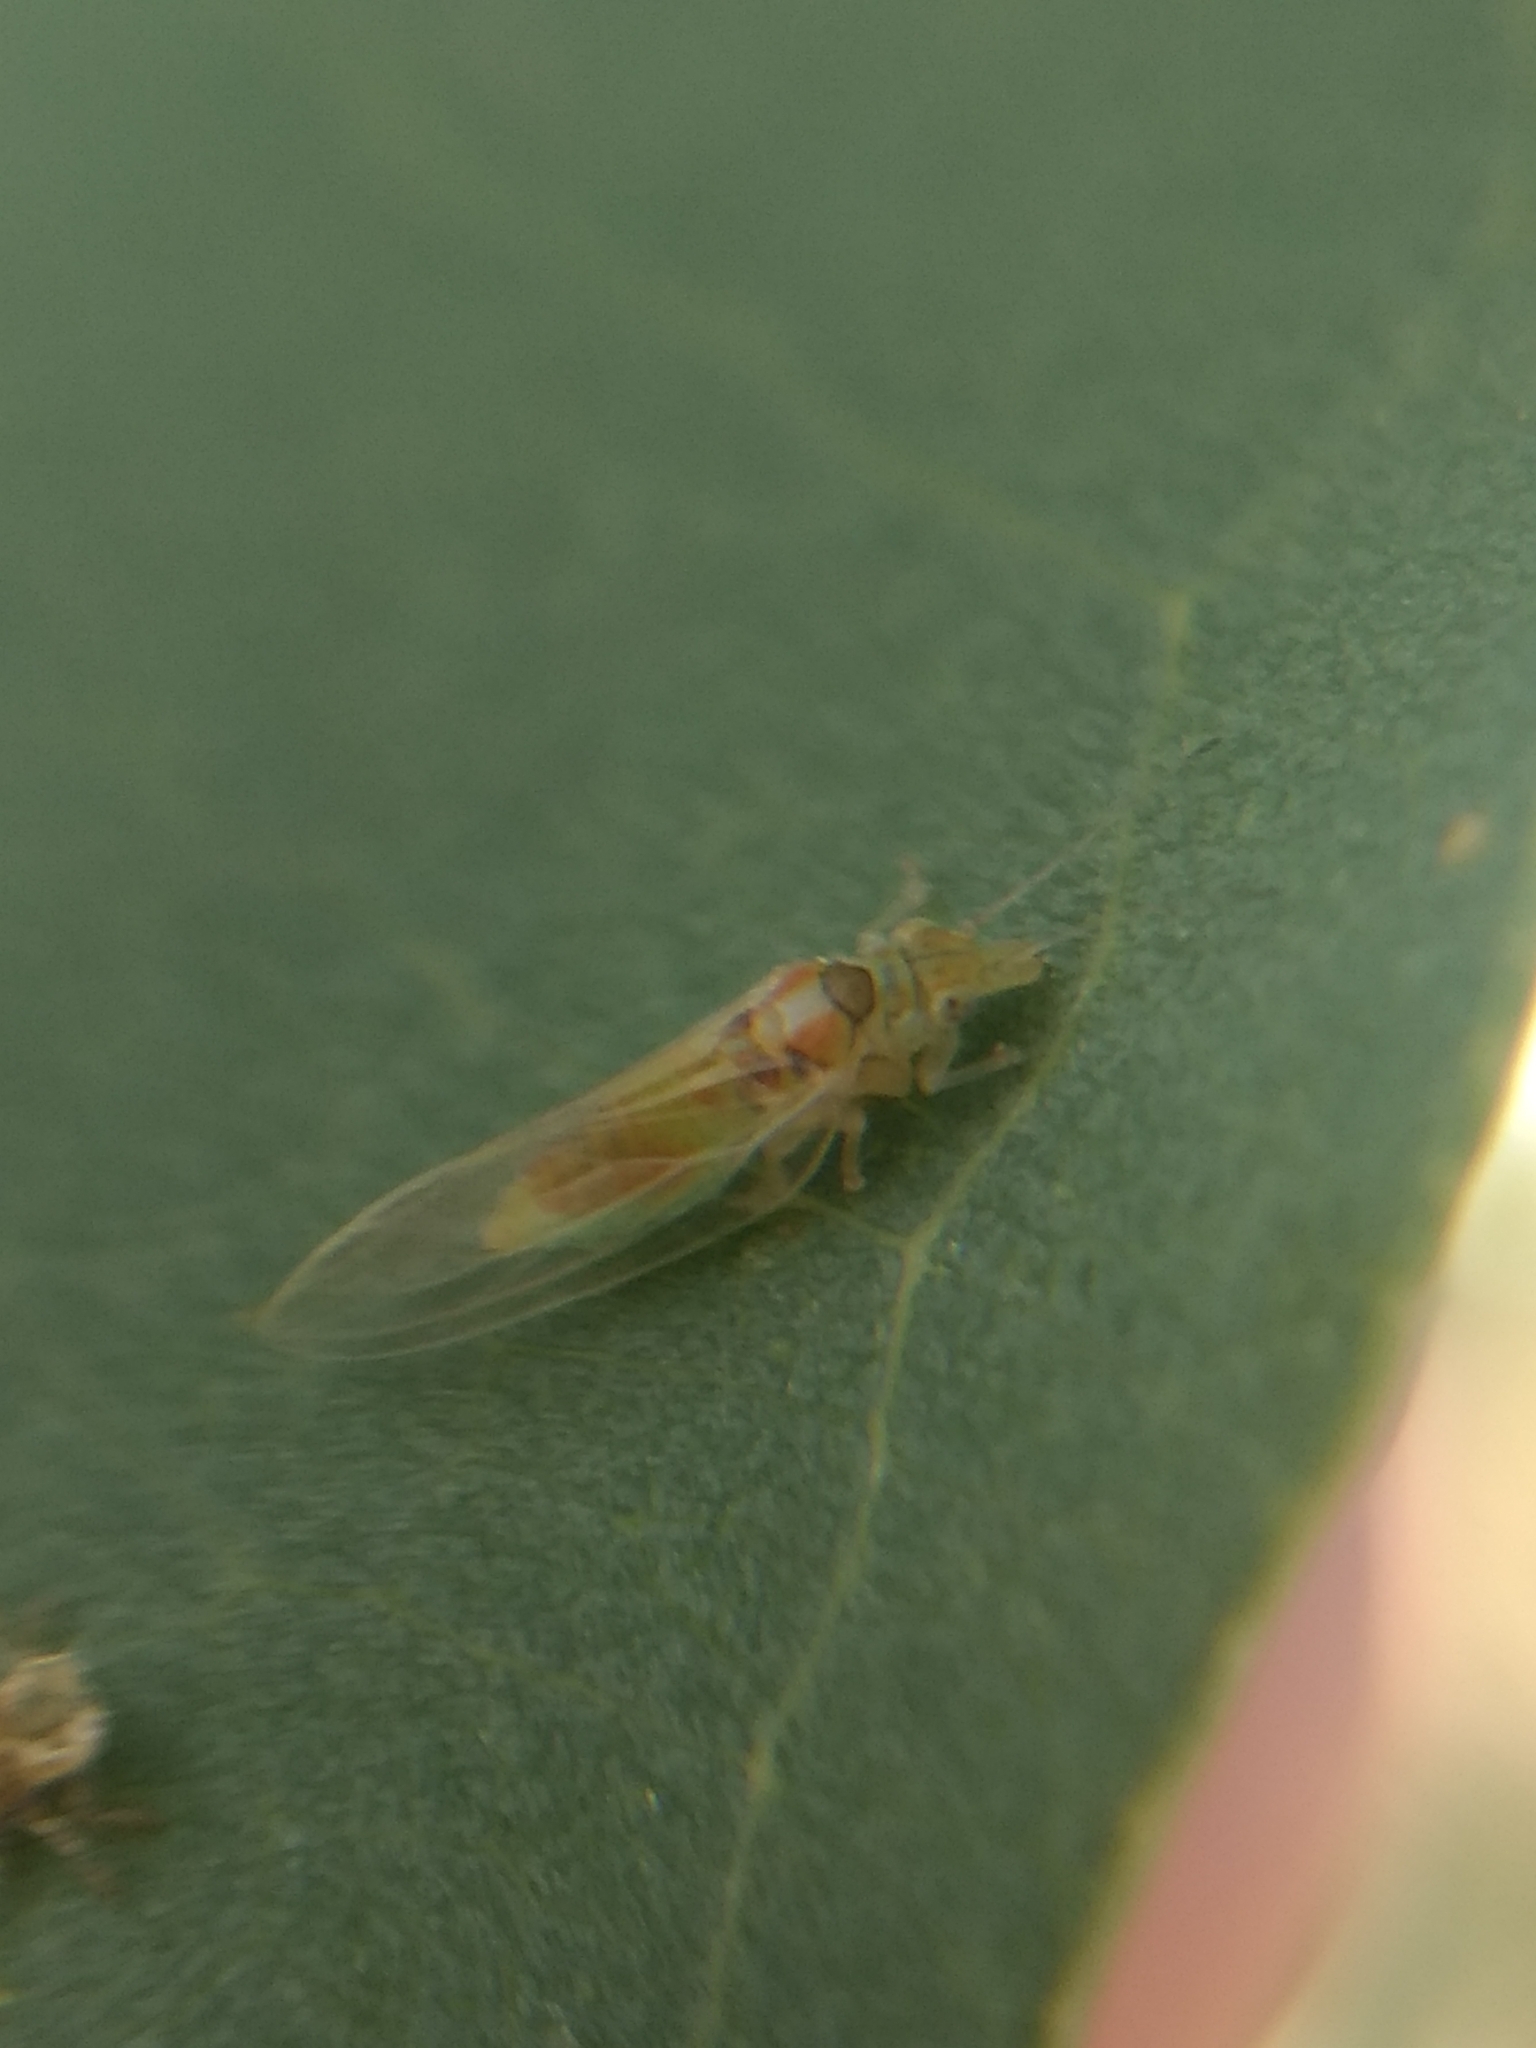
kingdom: Animalia
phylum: Arthropoda
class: Insecta
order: Hemiptera
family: Aphalaridae
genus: Glycaspis
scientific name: Glycaspis brimblecombei
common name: Red gum lerp psyllid
